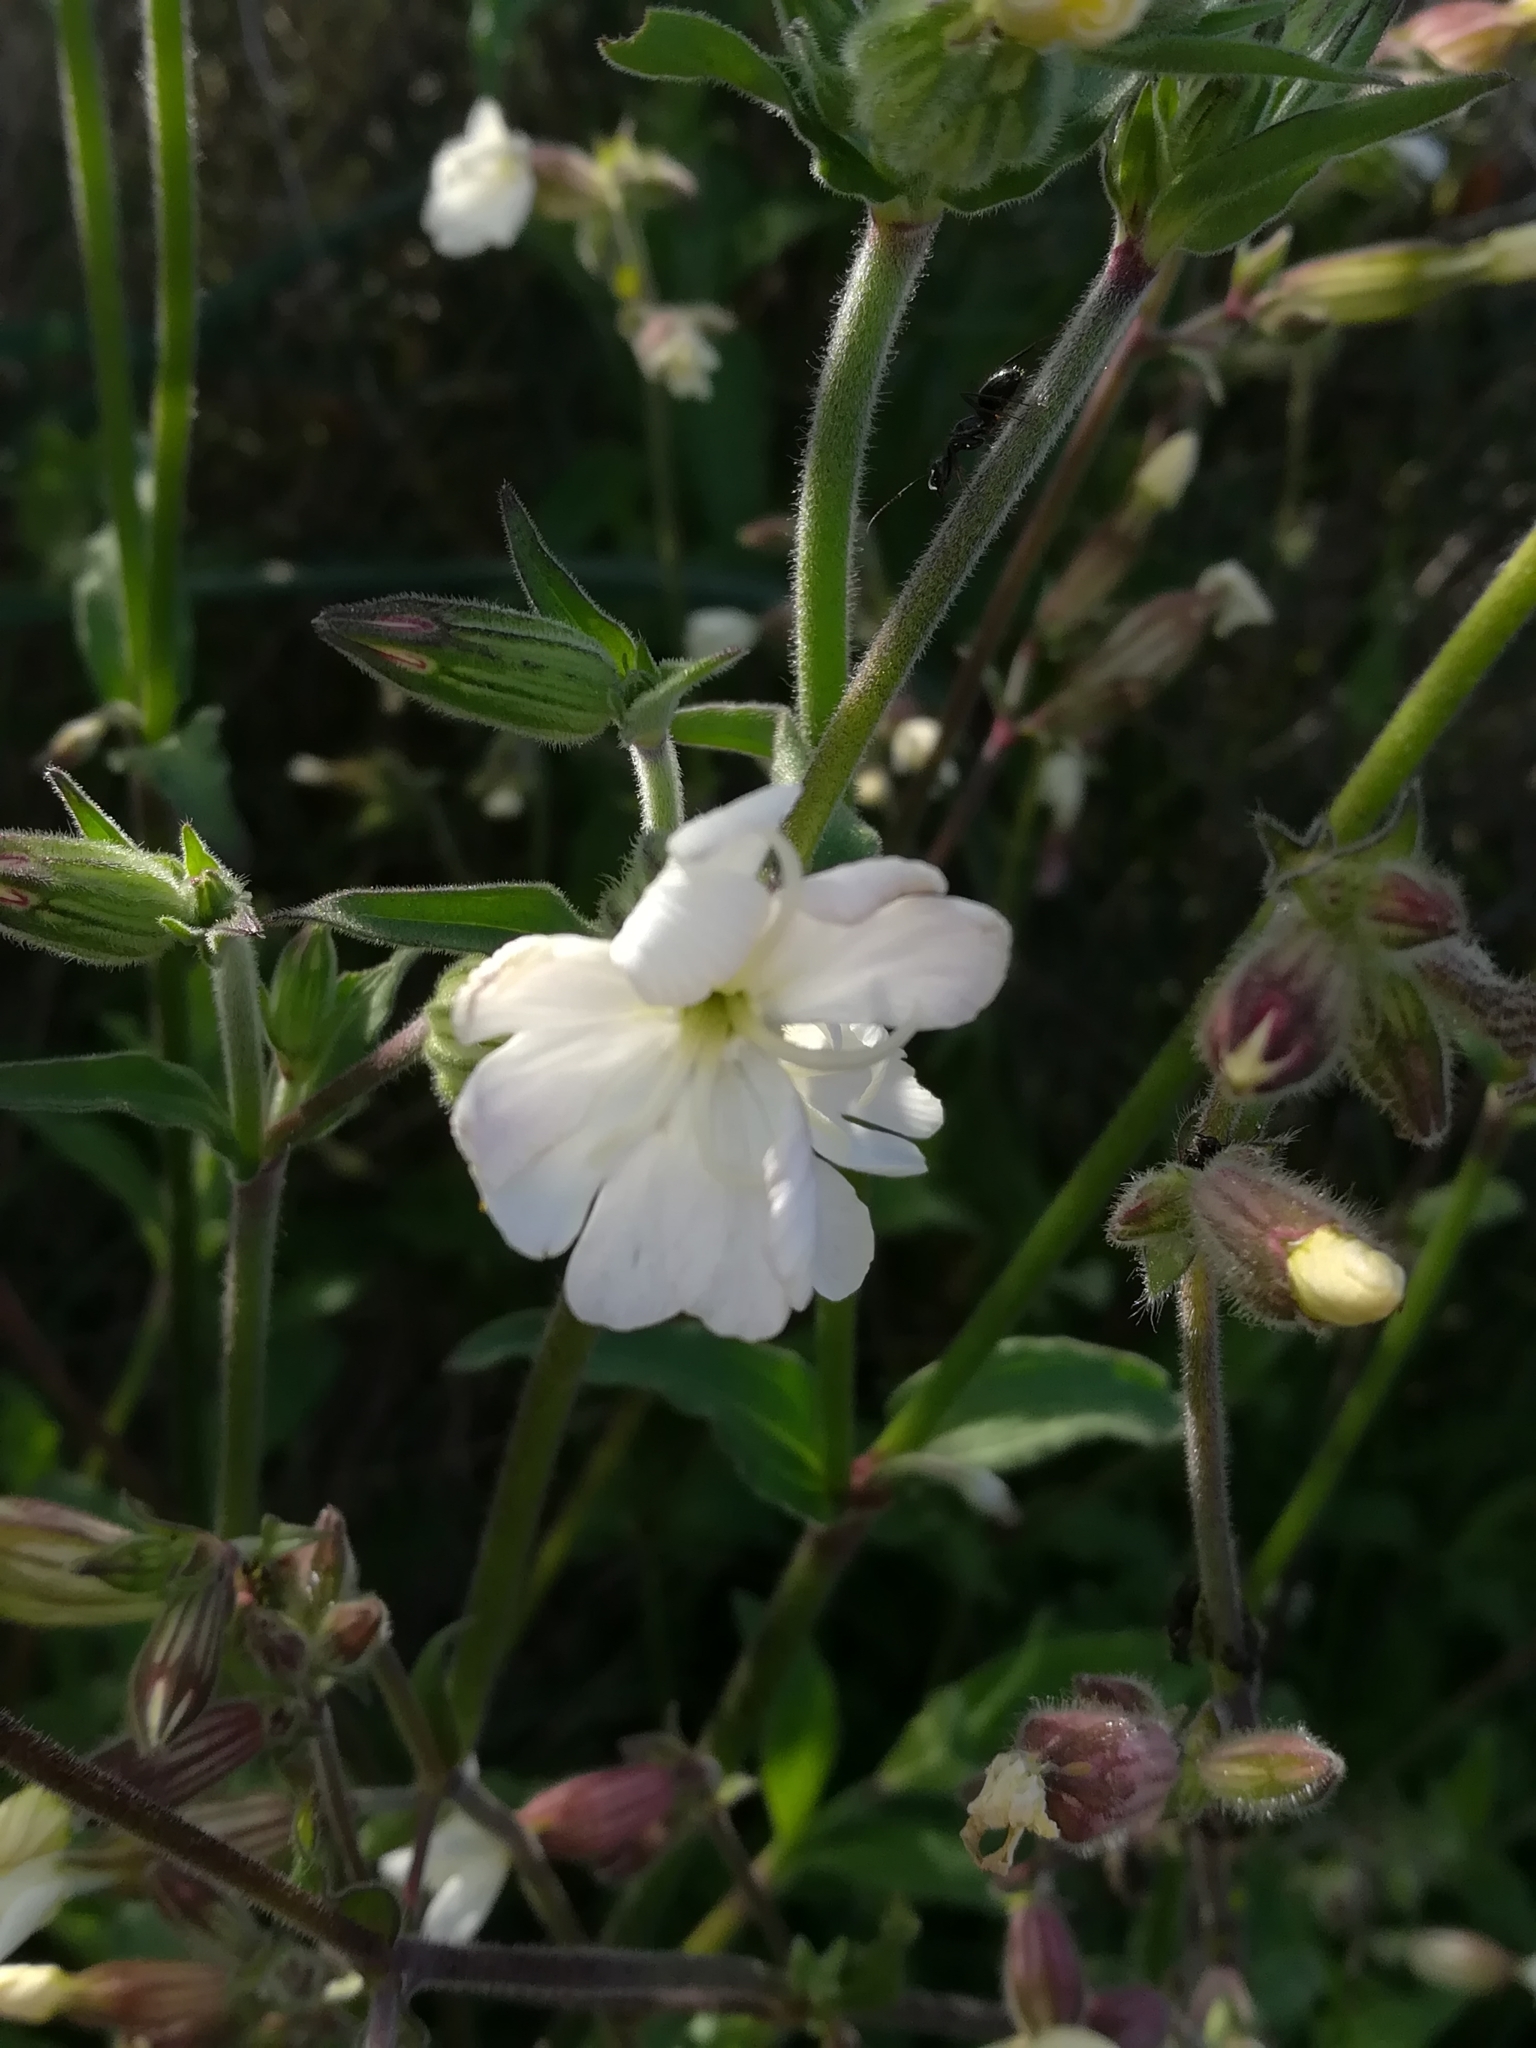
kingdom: Plantae
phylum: Tracheophyta
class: Magnoliopsida
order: Caryophyllales
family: Caryophyllaceae
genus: Silene
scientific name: Silene latifolia
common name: White campion
